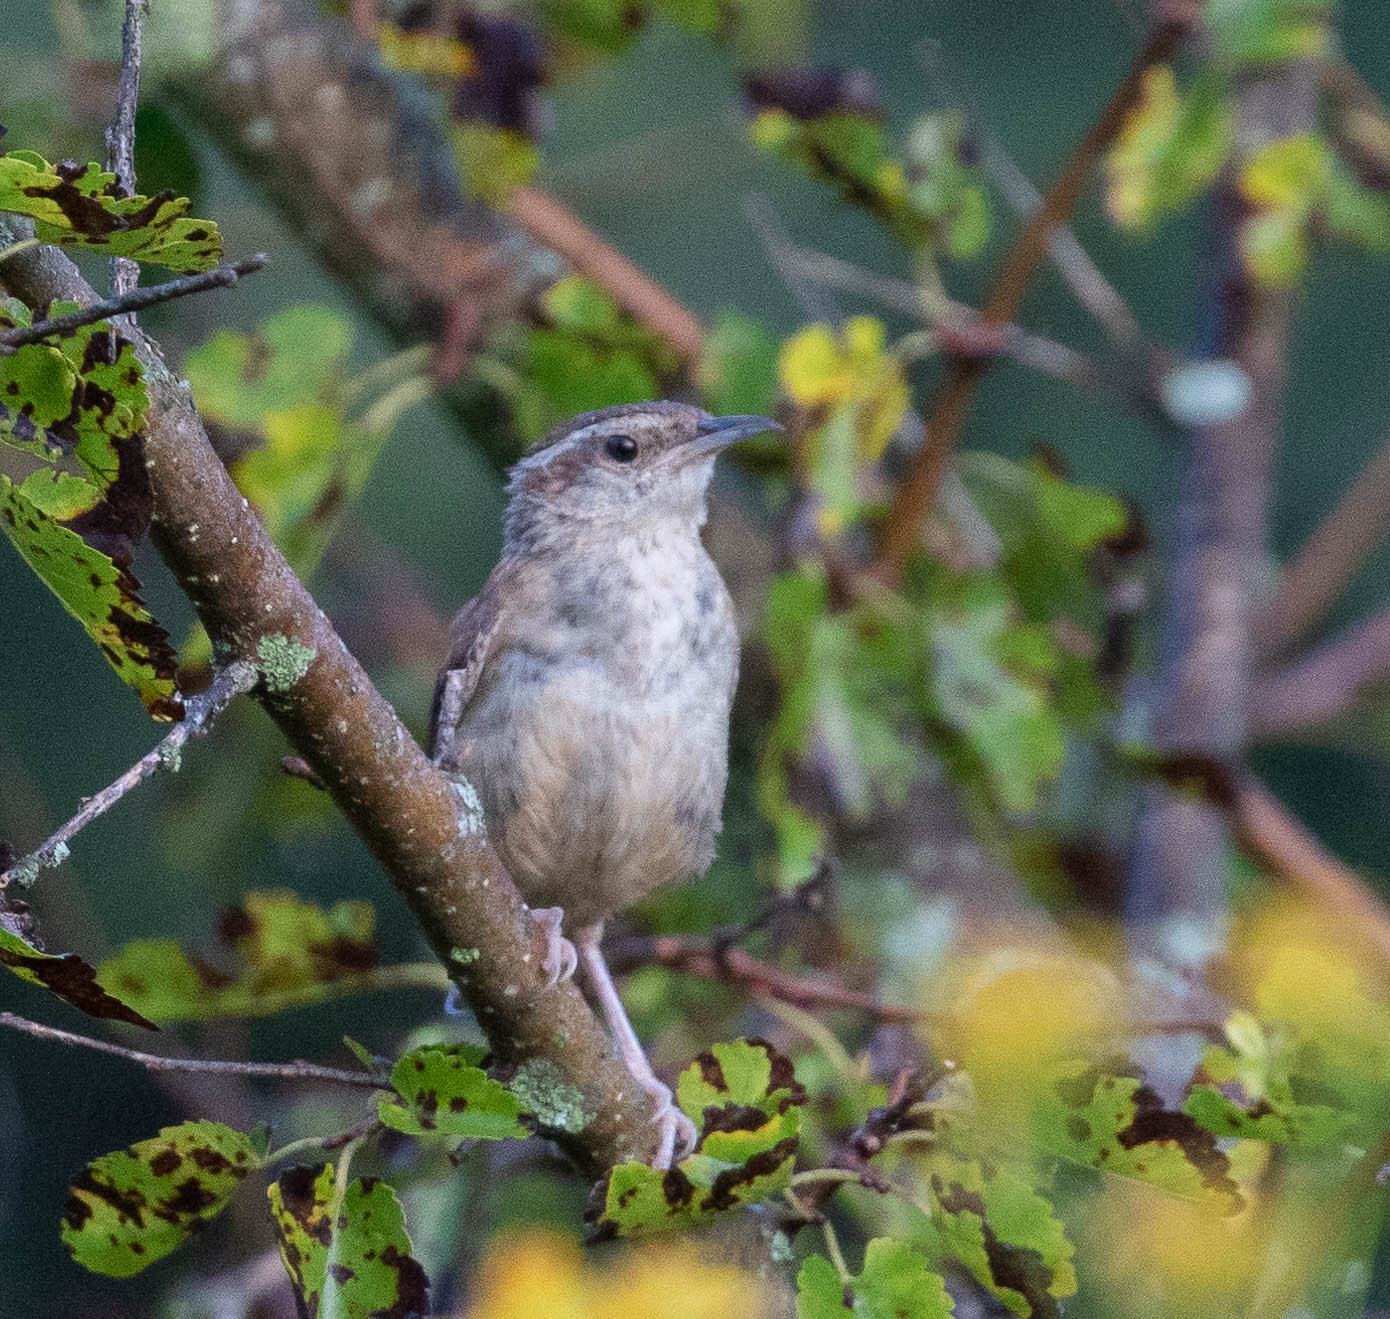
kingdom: Animalia
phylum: Chordata
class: Aves
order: Passeriformes
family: Troglodytidae
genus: Thryothorus
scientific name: Thryothorus ludovicianus
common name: Carolina wren
